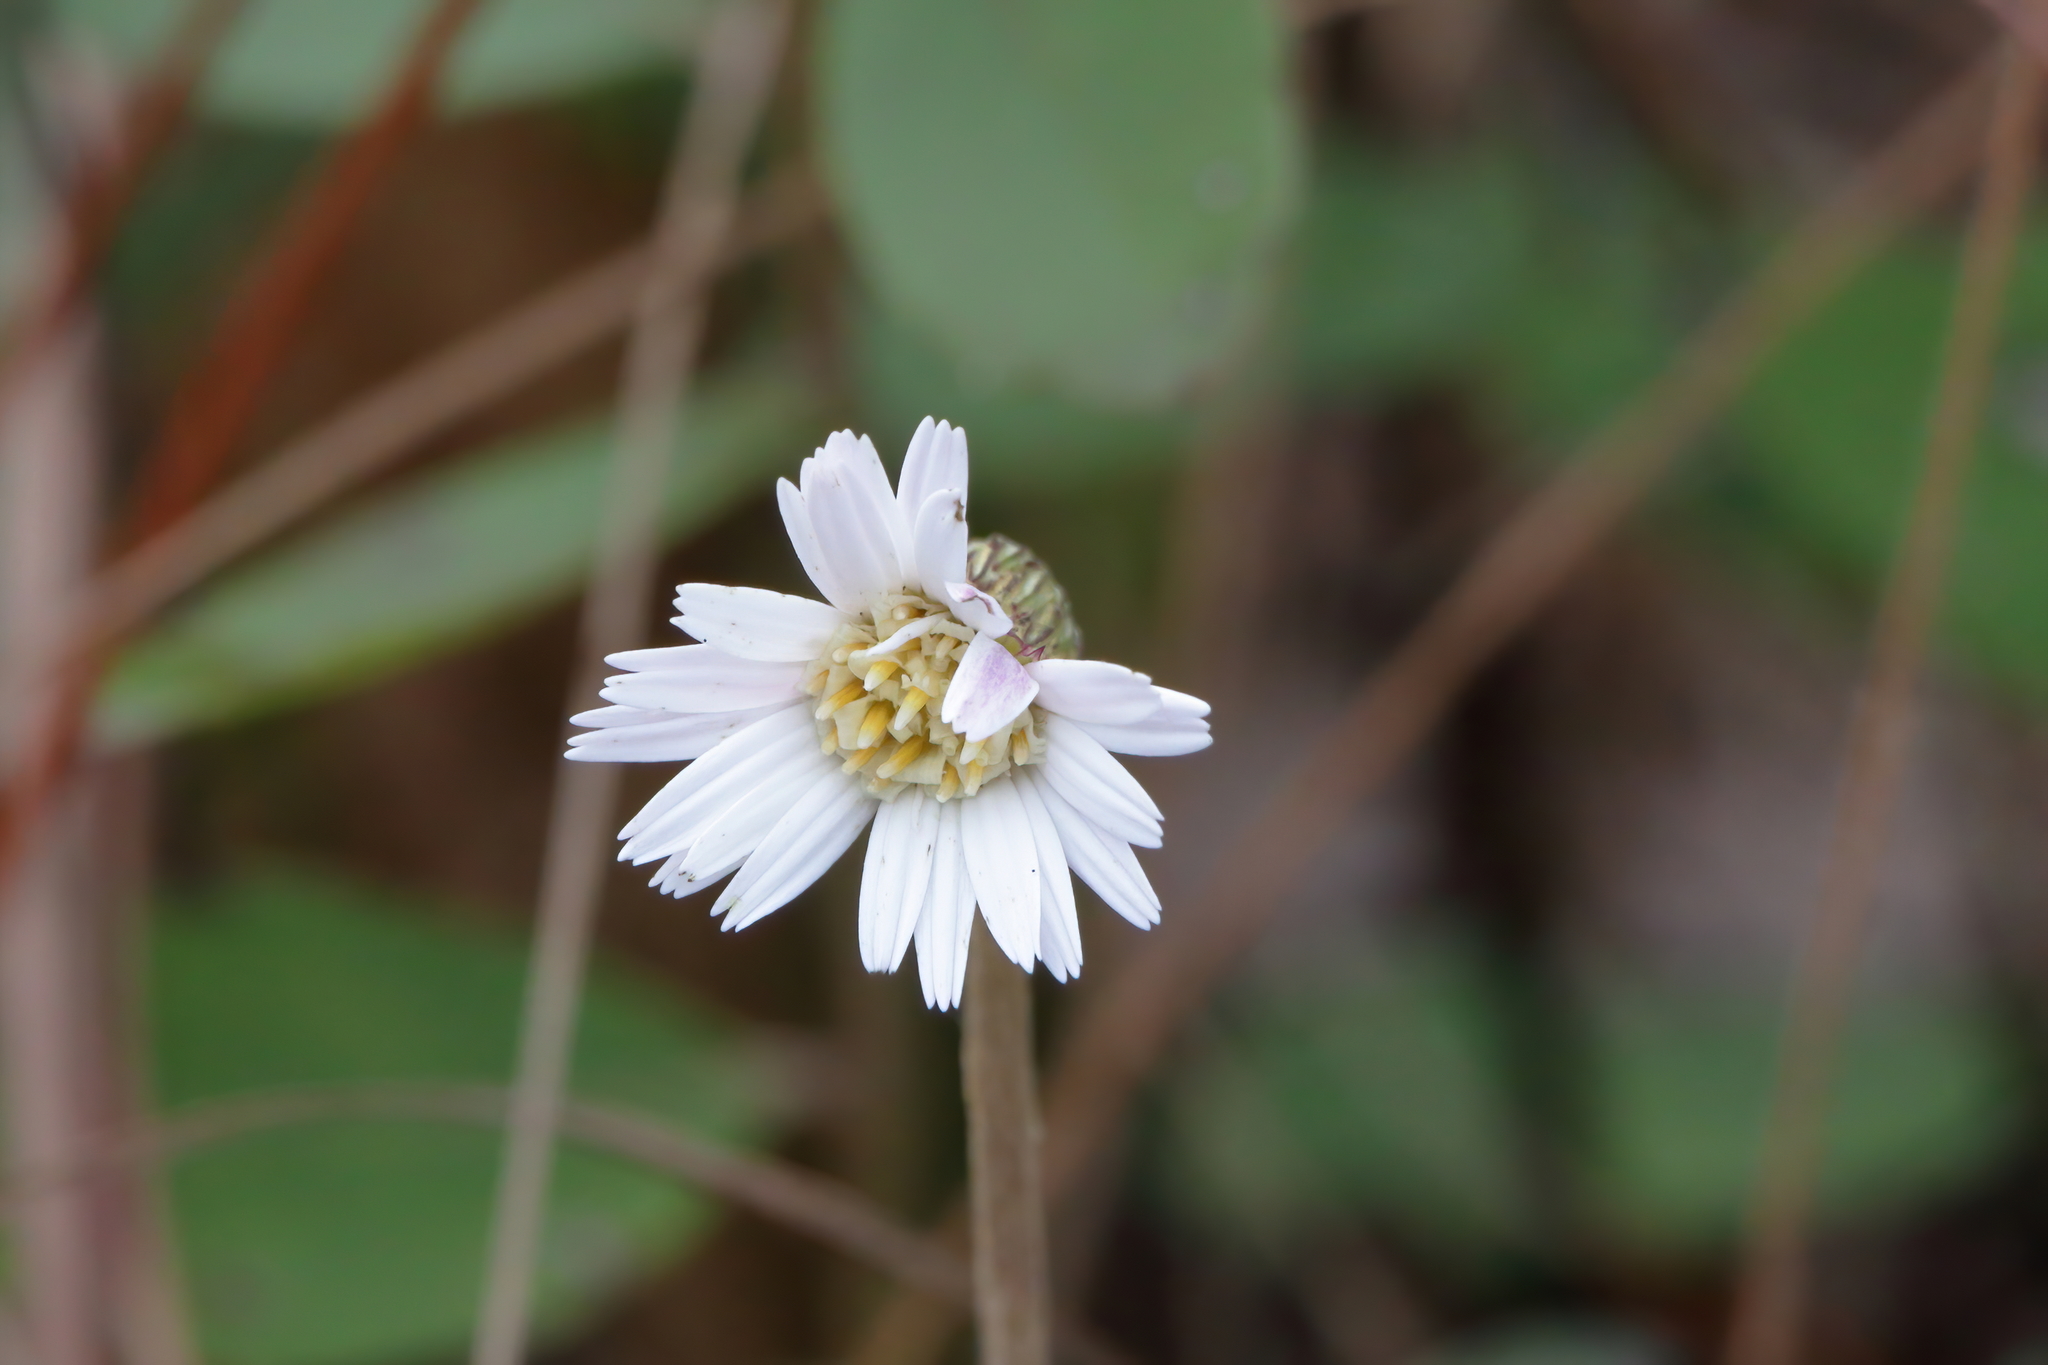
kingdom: Plantae
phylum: Tracheophyta
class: Magnoliopsida
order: Asterales
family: Asteraceae
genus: Chaptalia
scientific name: Chaptalia tomentosa
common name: Woolly sunbonnet
